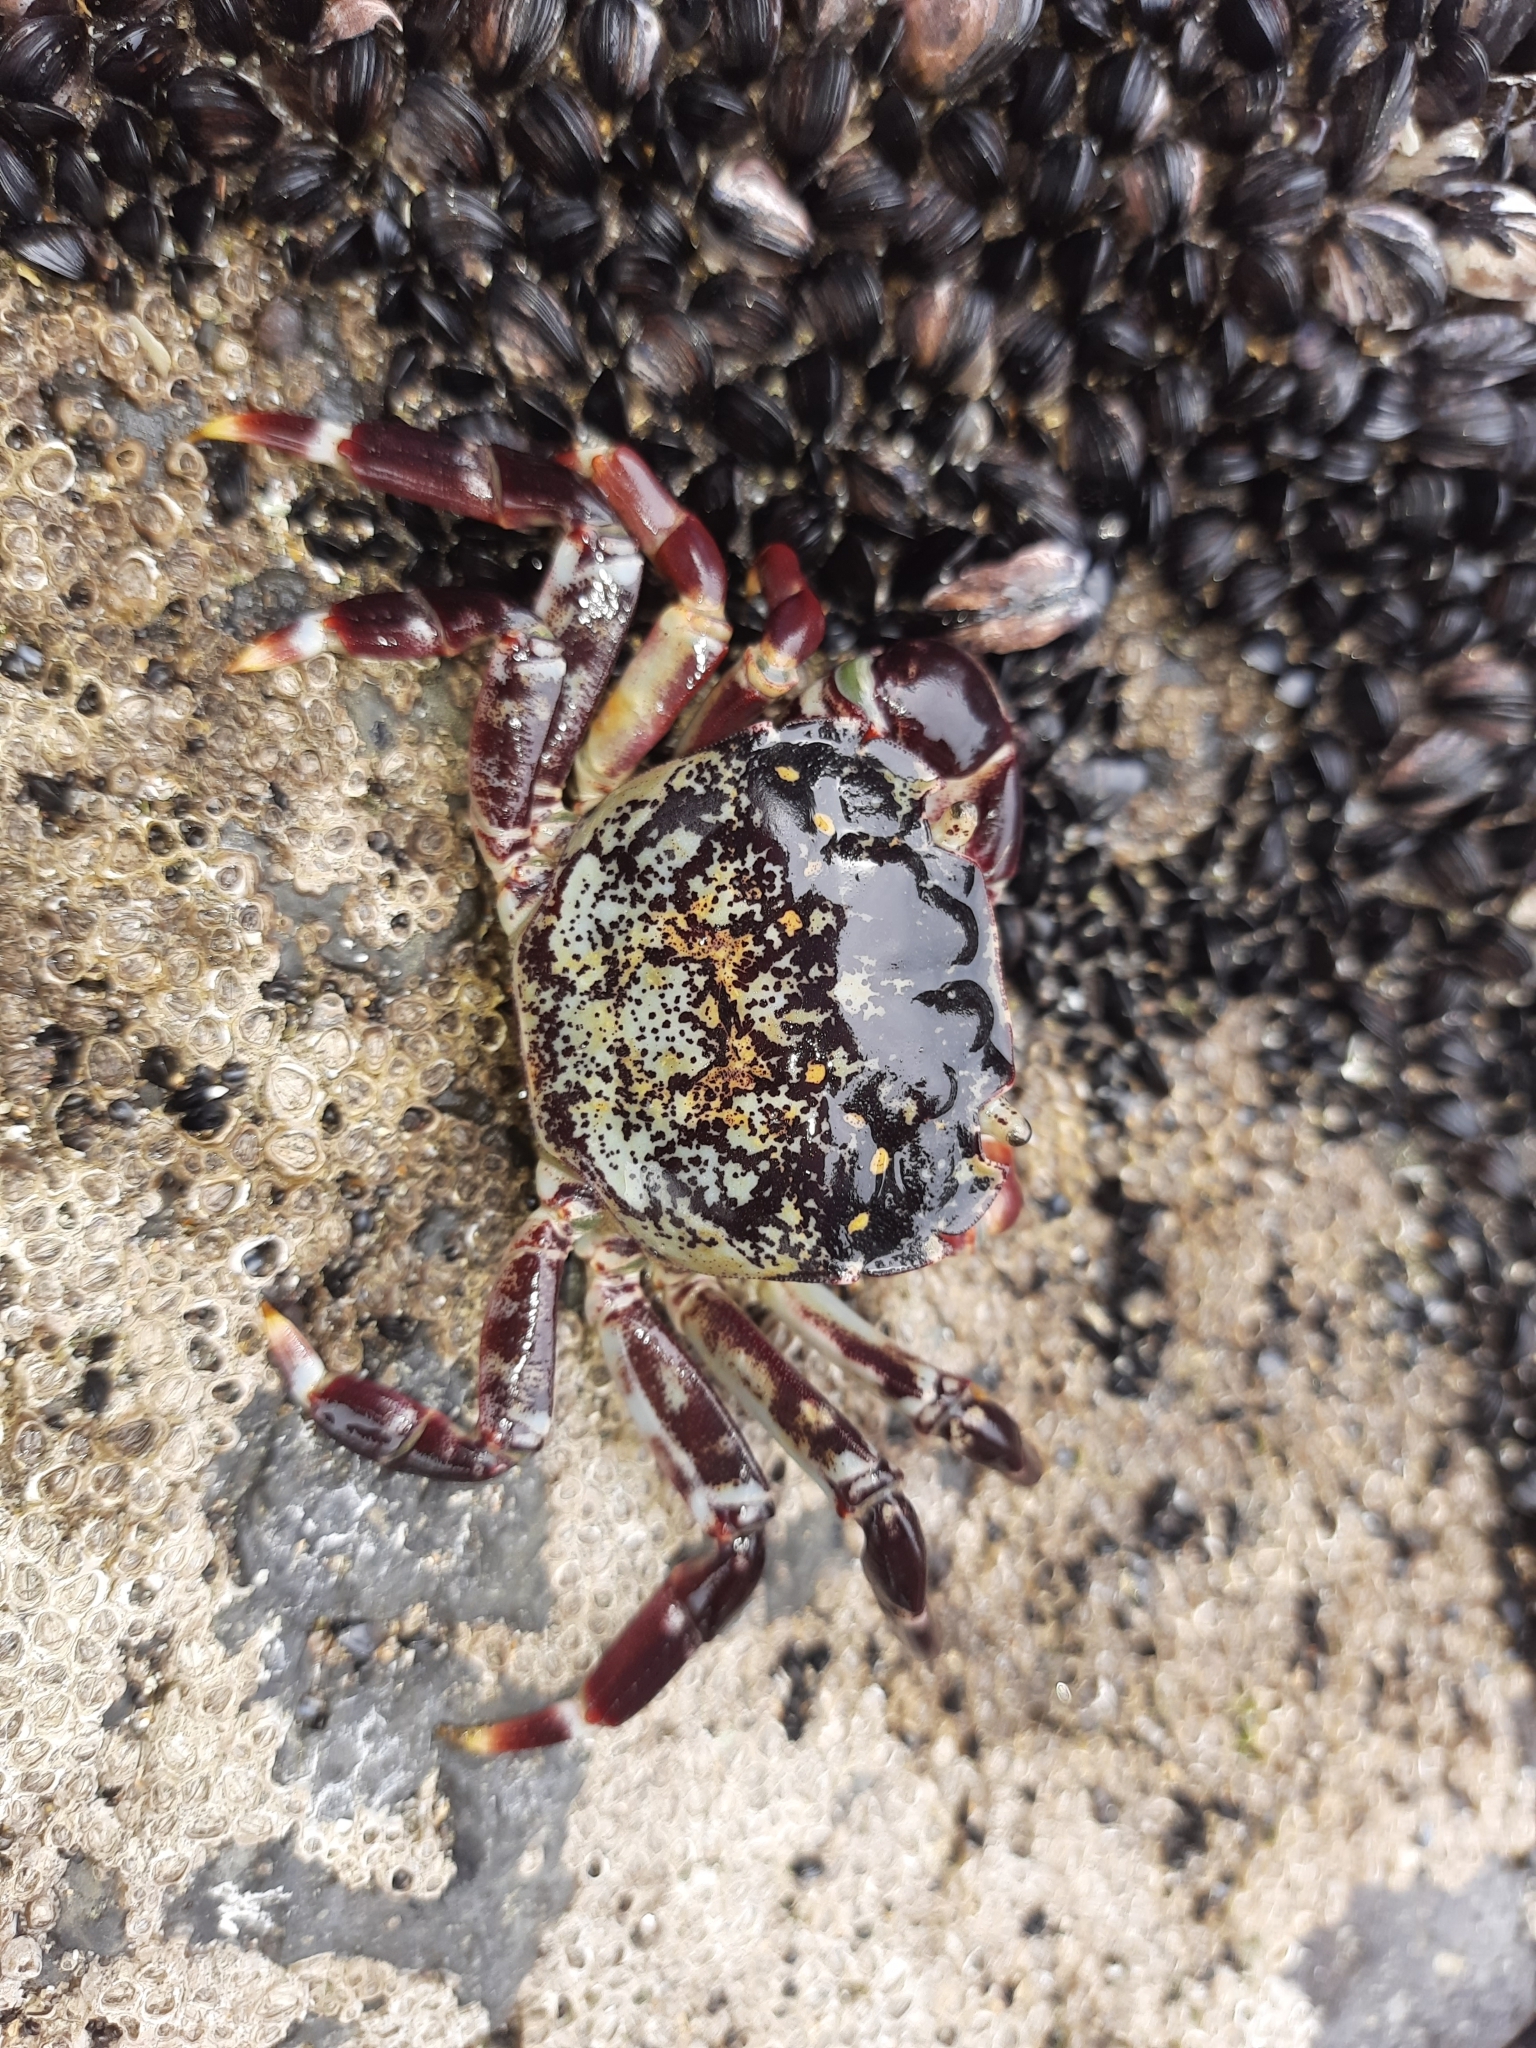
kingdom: Animalia
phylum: Arthropoda
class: Malacostraca
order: Decapoda
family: Varunidae
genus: Hemigrapsus
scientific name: Hemigrapsus sexdentatus
